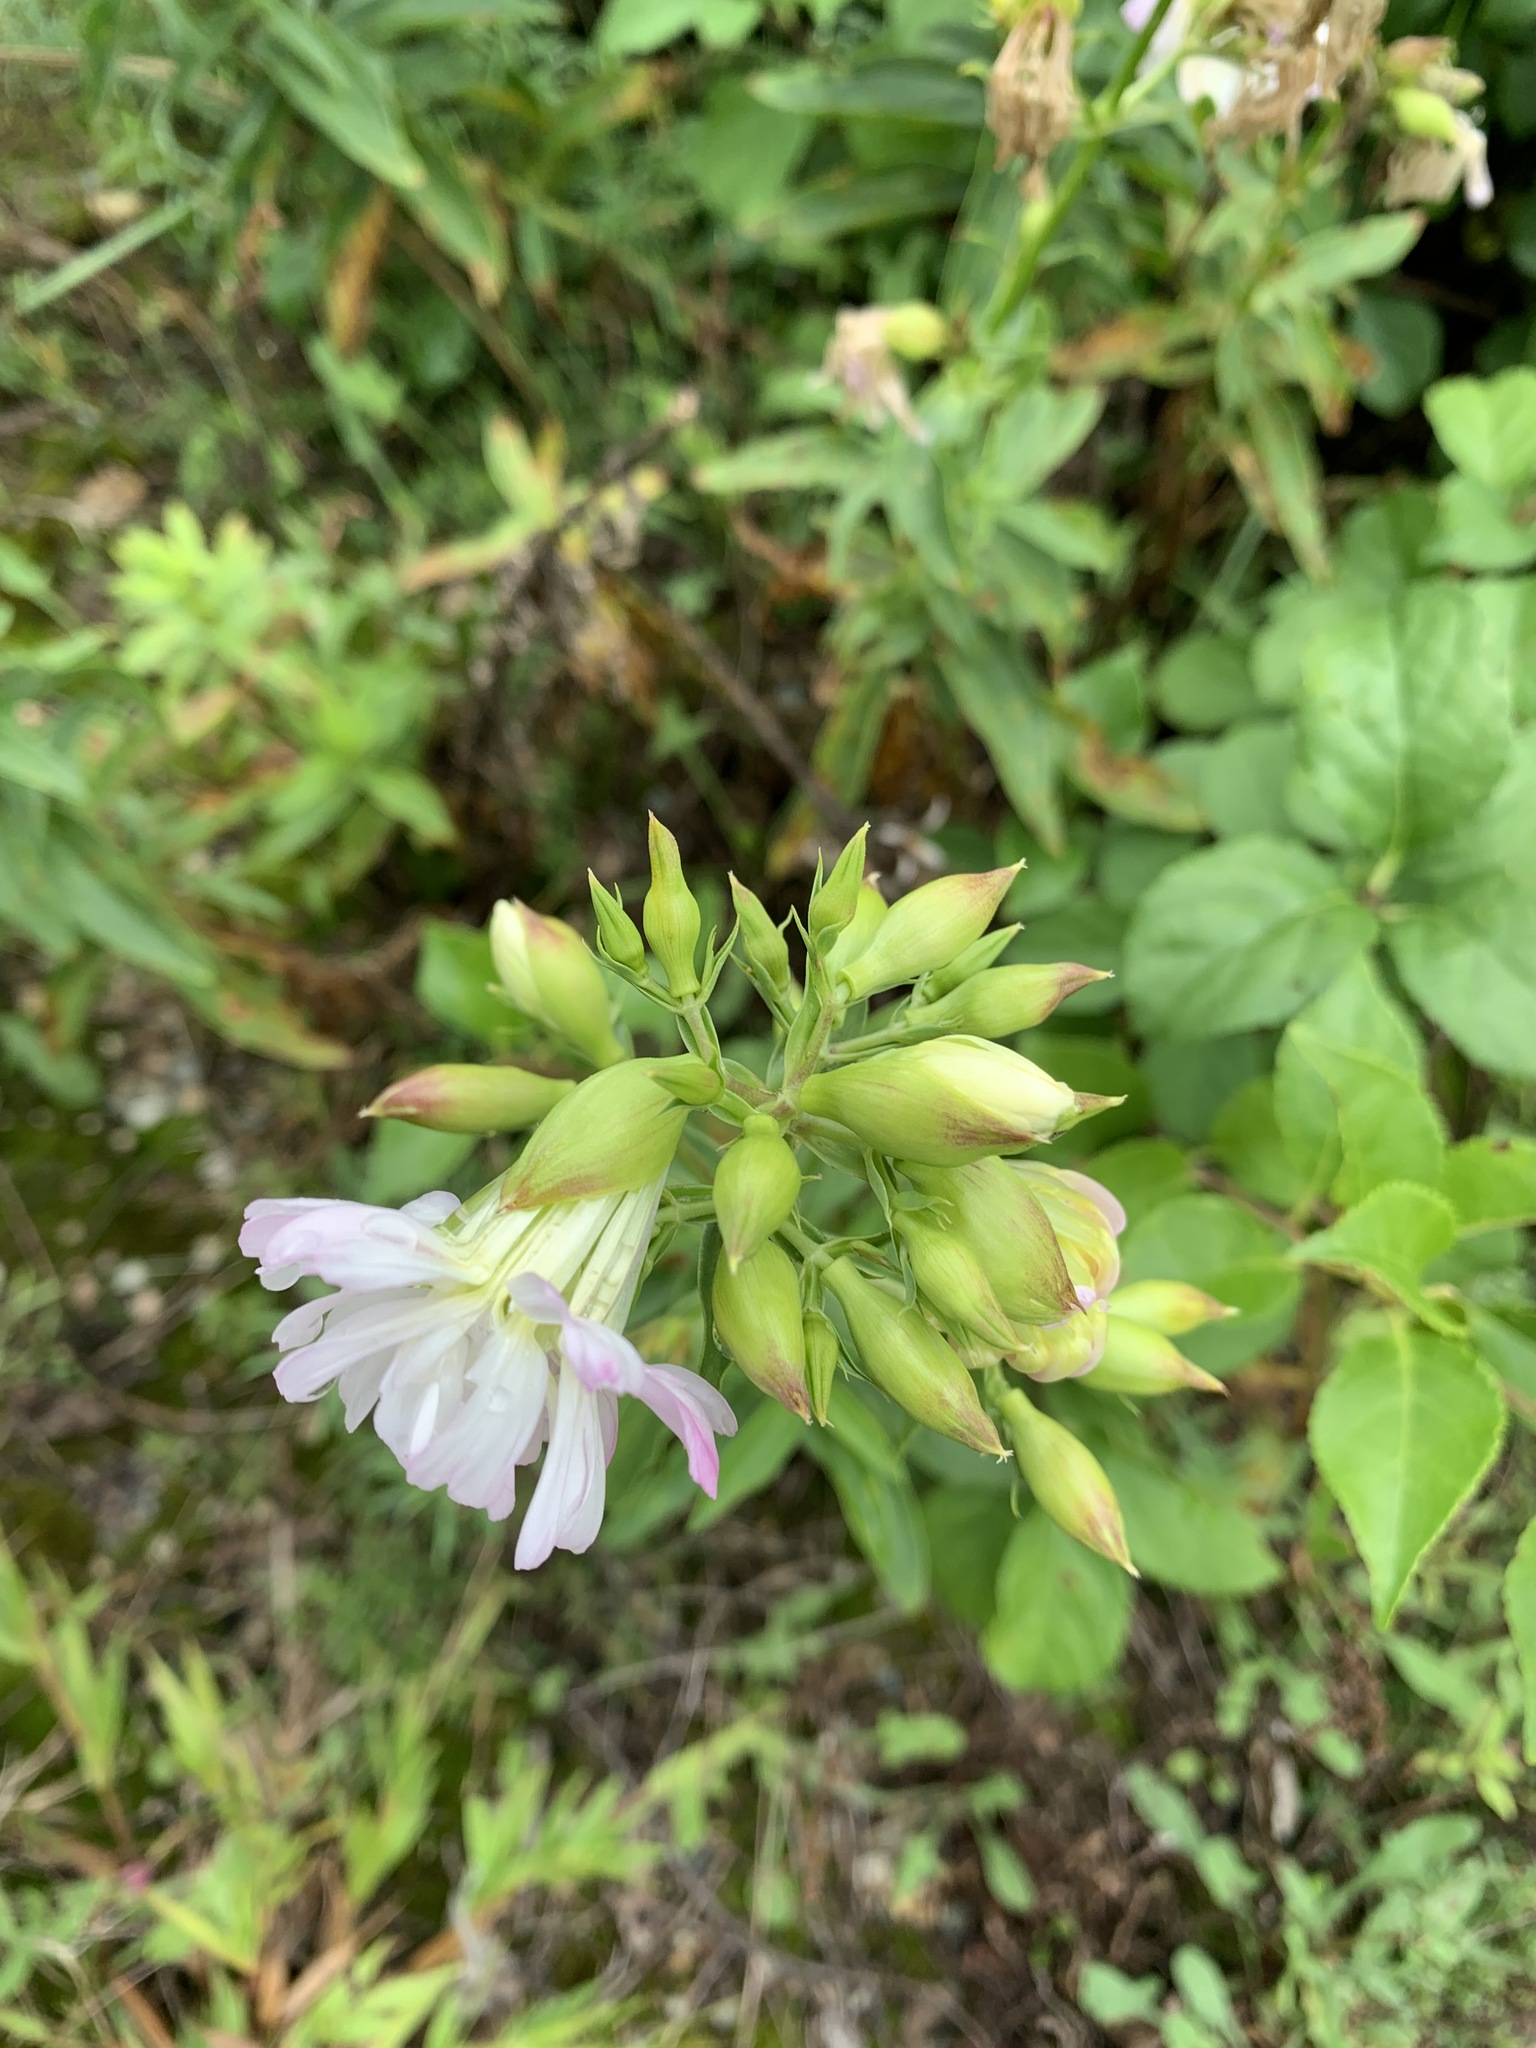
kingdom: Plantae
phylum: Tracheophyta
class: Magnoliopsida
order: Caryophyllales
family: Caryophyllaceae
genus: Saponaria
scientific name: Saponaria officinalis
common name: Soapwort
